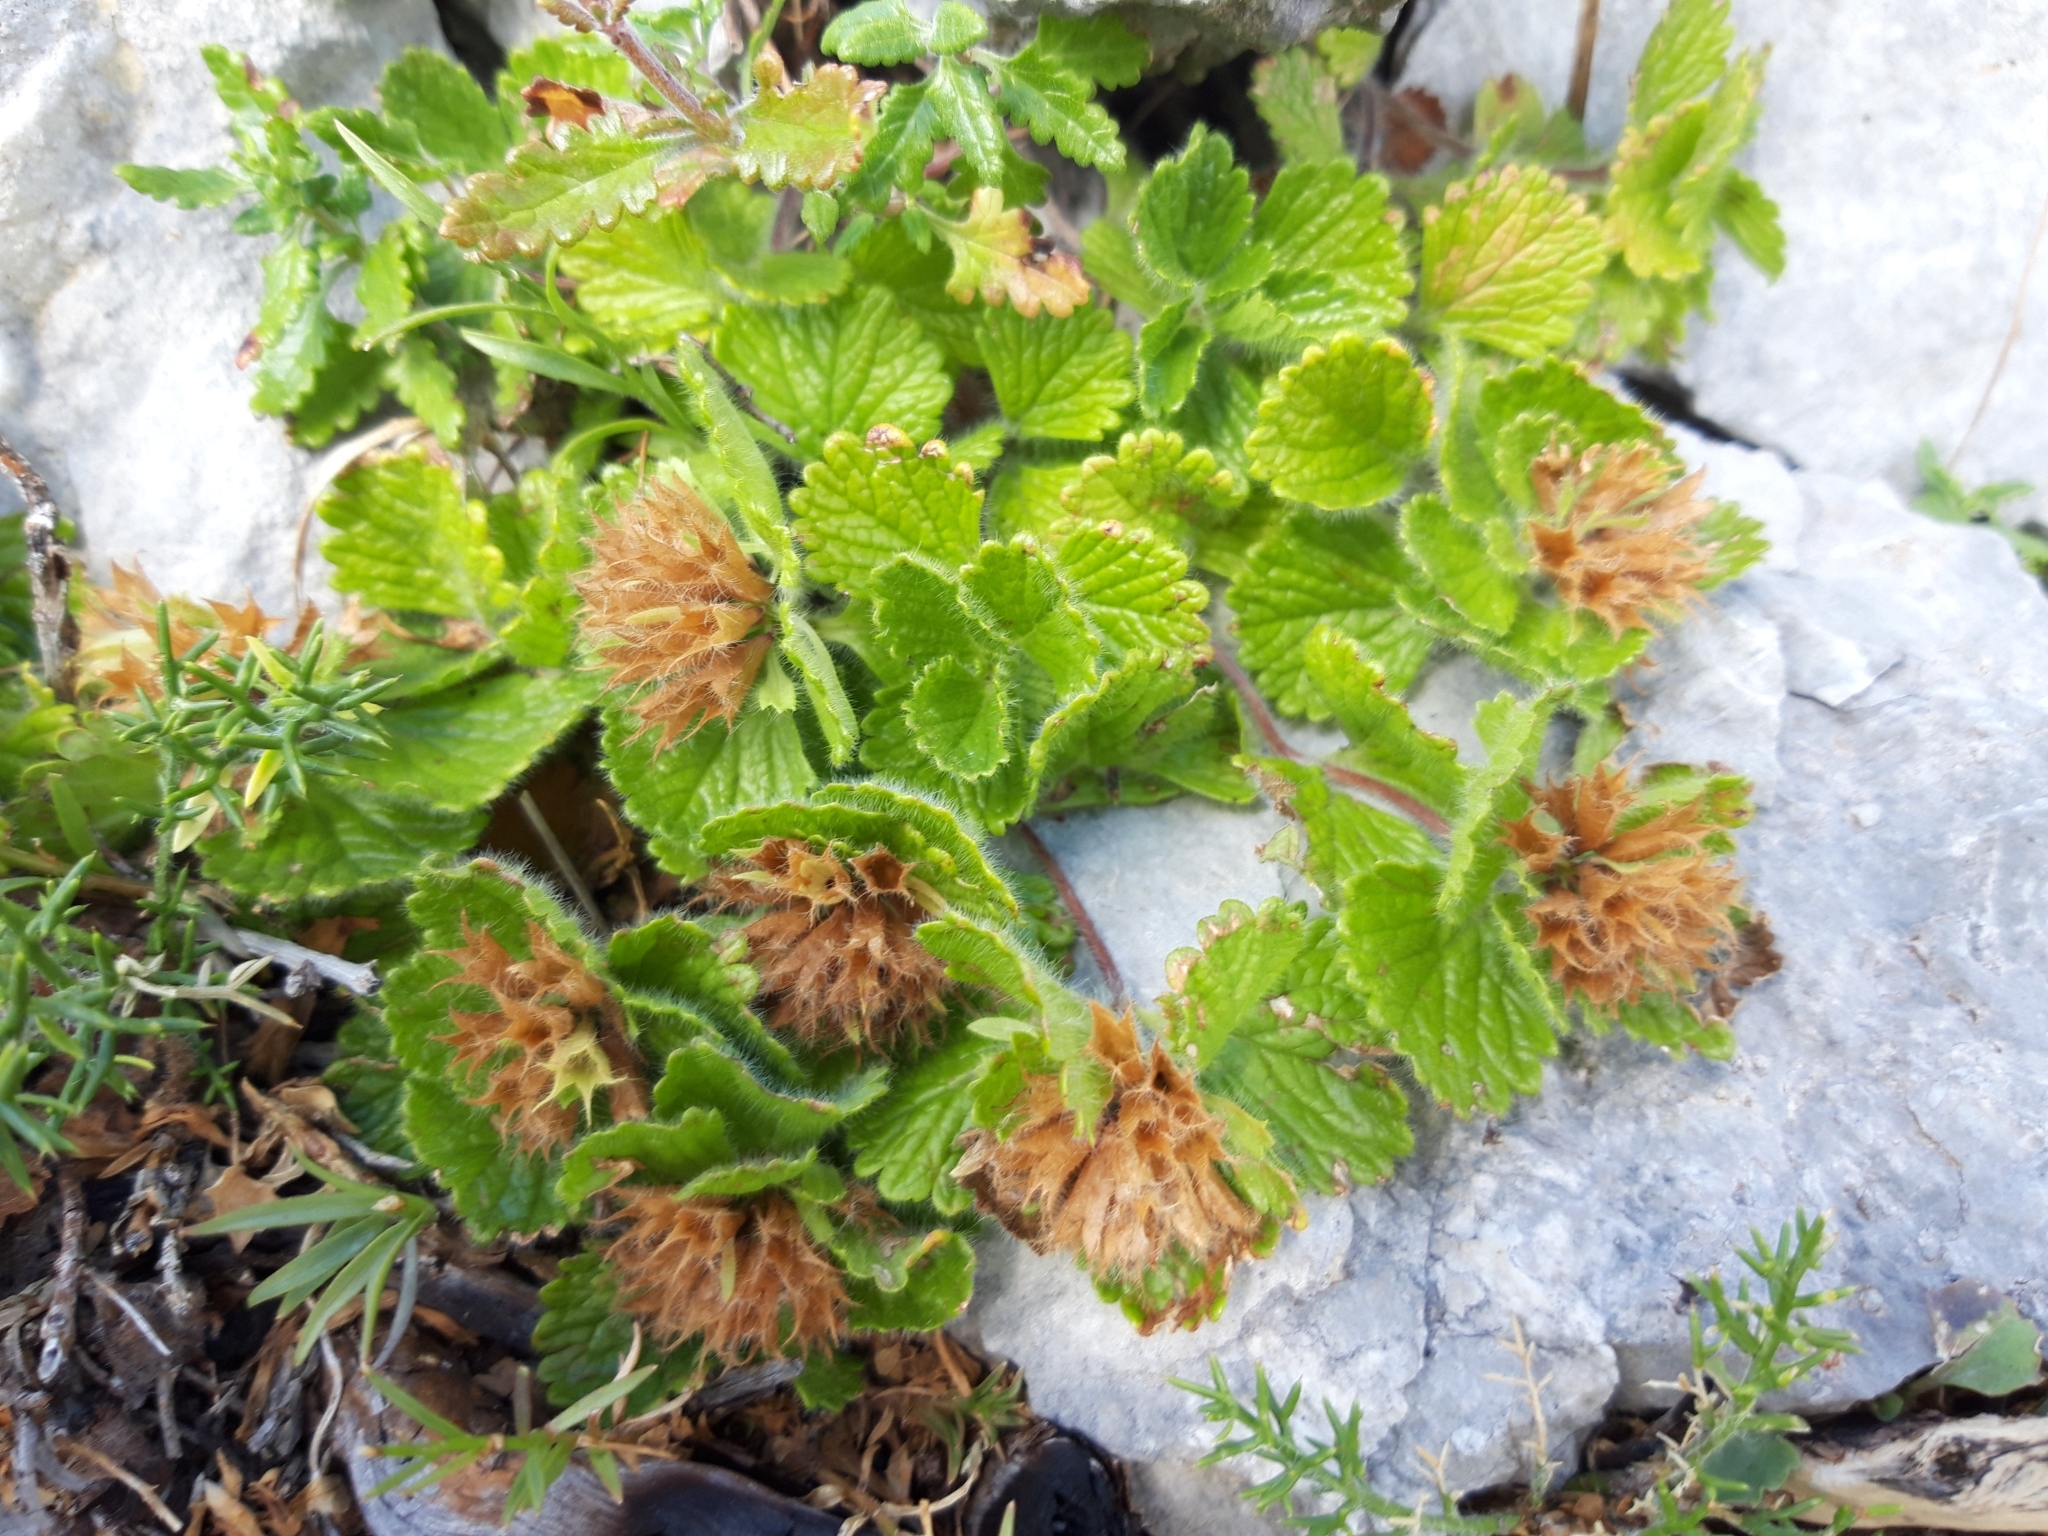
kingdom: Plantae
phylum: Tracheophyta
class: Magnoliopsida
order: Lamiales
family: Lamiaceae
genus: Teucrium
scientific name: Teucrium pyrenaicum
